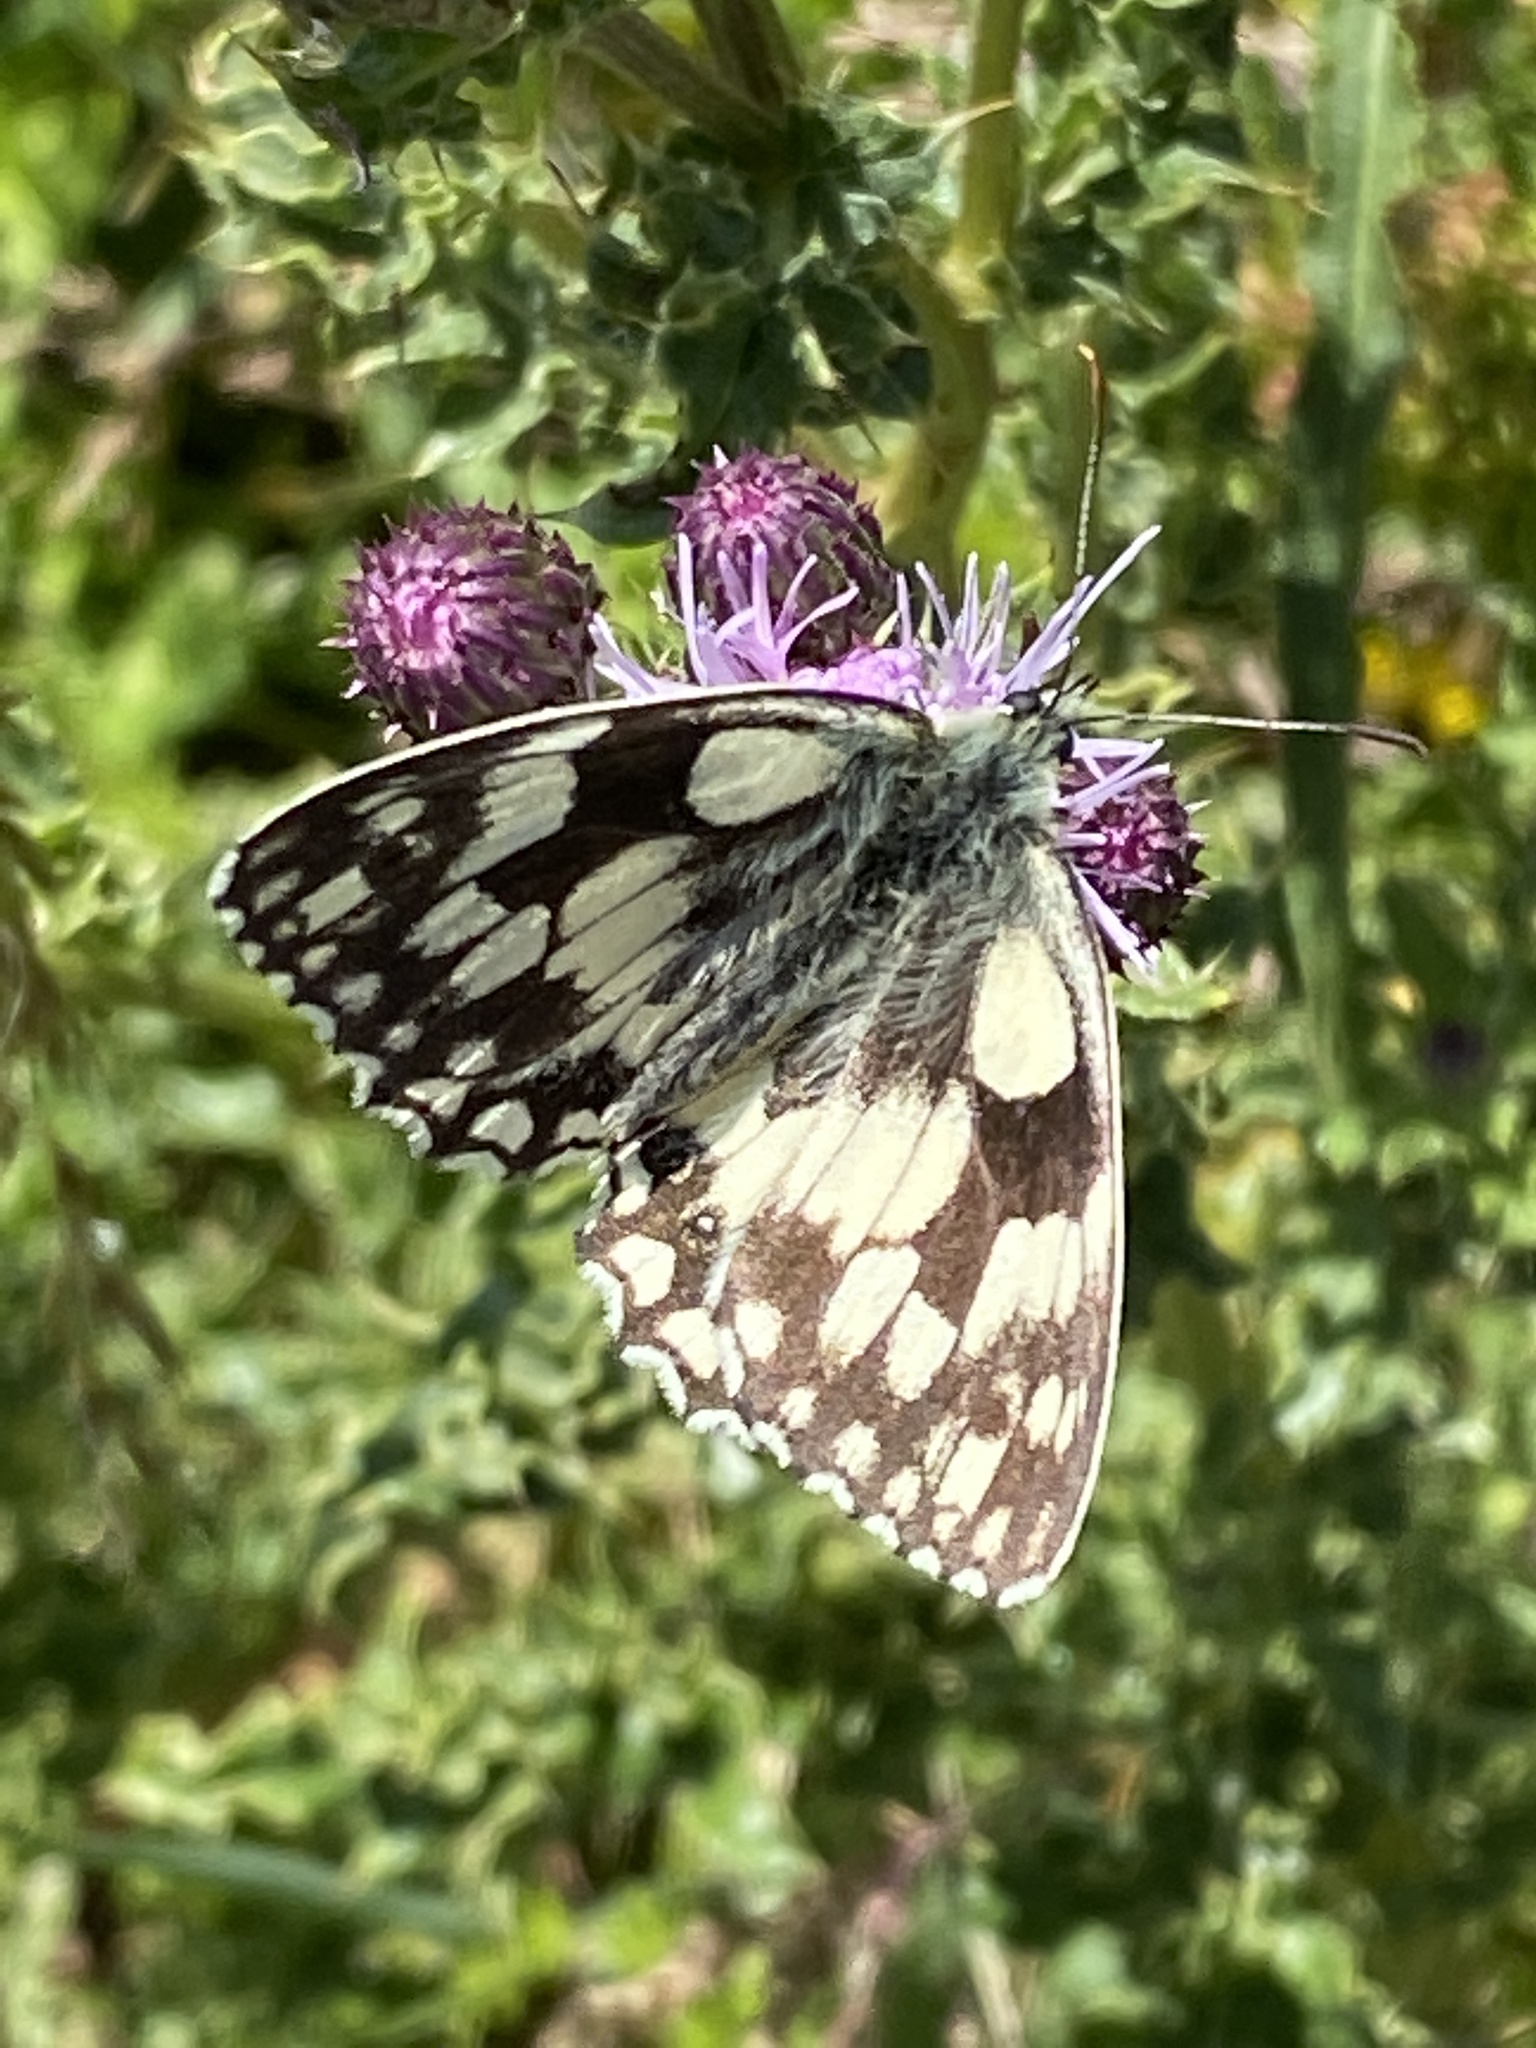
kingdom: Animalia
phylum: Arthropoda
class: Insecta
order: Lepidoptera
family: Nymphalidae
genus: Melanargia
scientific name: Melanargia galathea
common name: Marbled white
